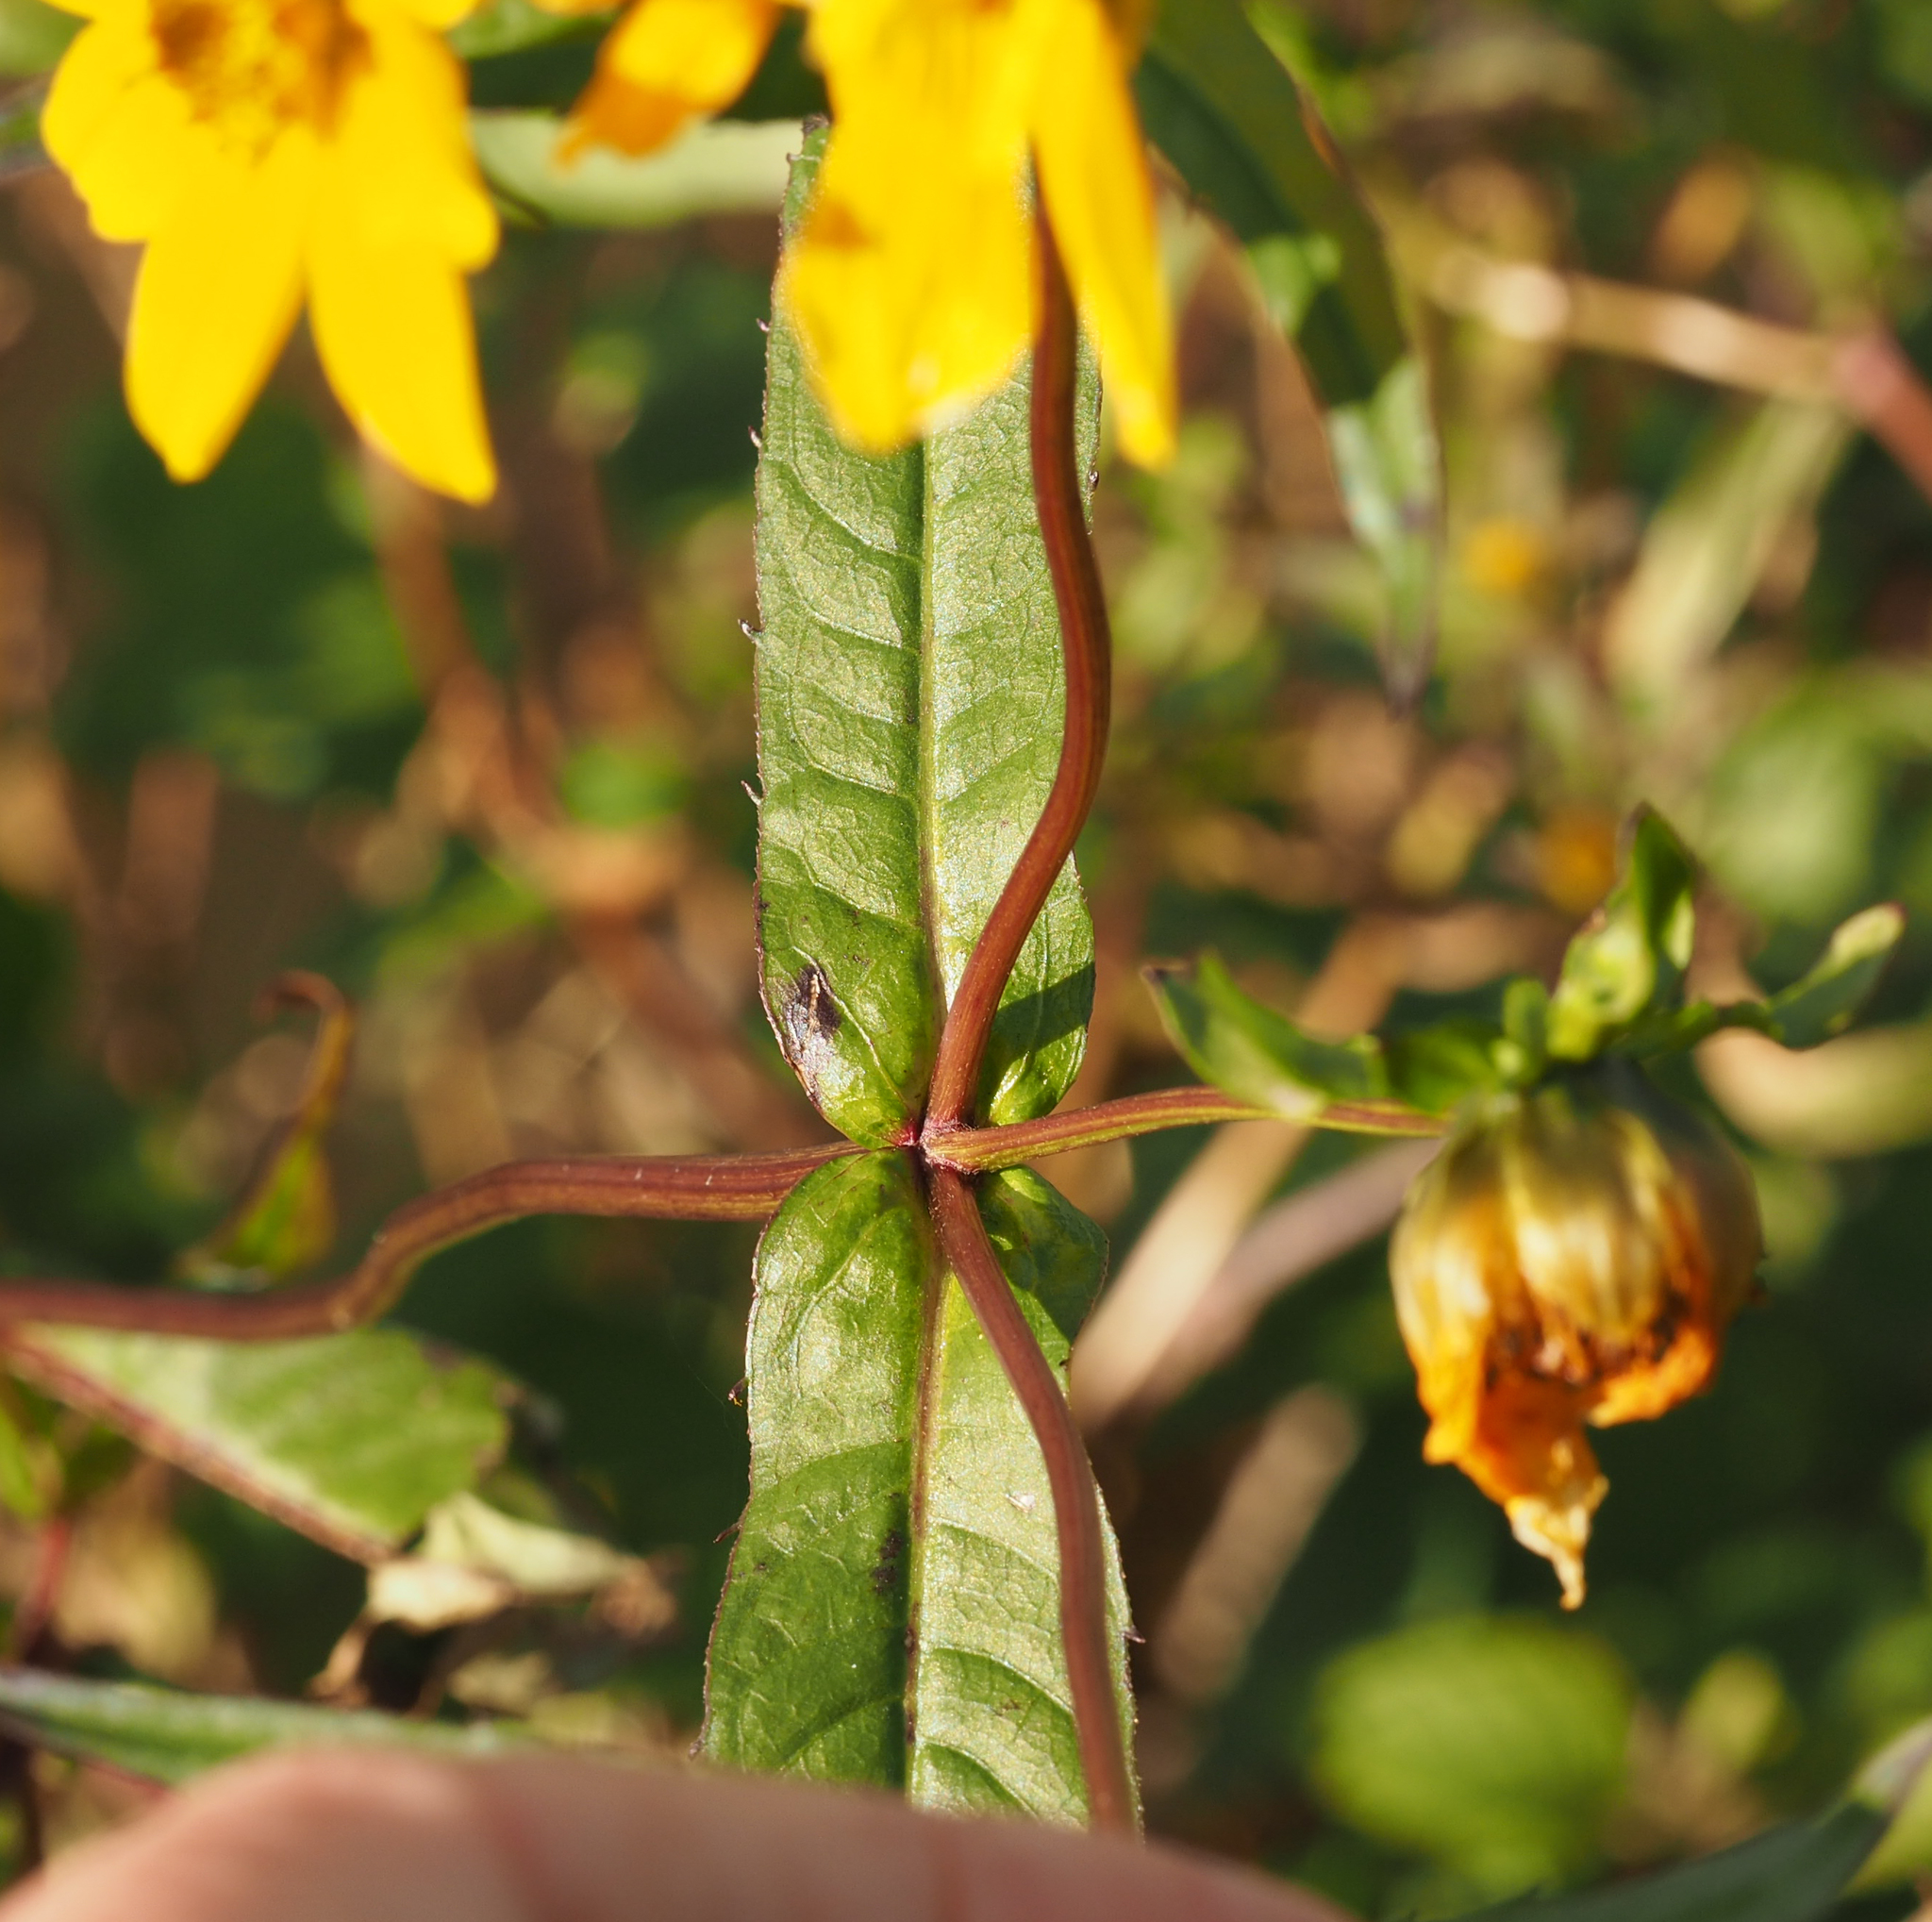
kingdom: Plantae
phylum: Tracheophyta
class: Magnoliopsida
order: Asterales
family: Asteraceae
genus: Bidens
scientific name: Bidens laevis
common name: Larger bur-marigold
